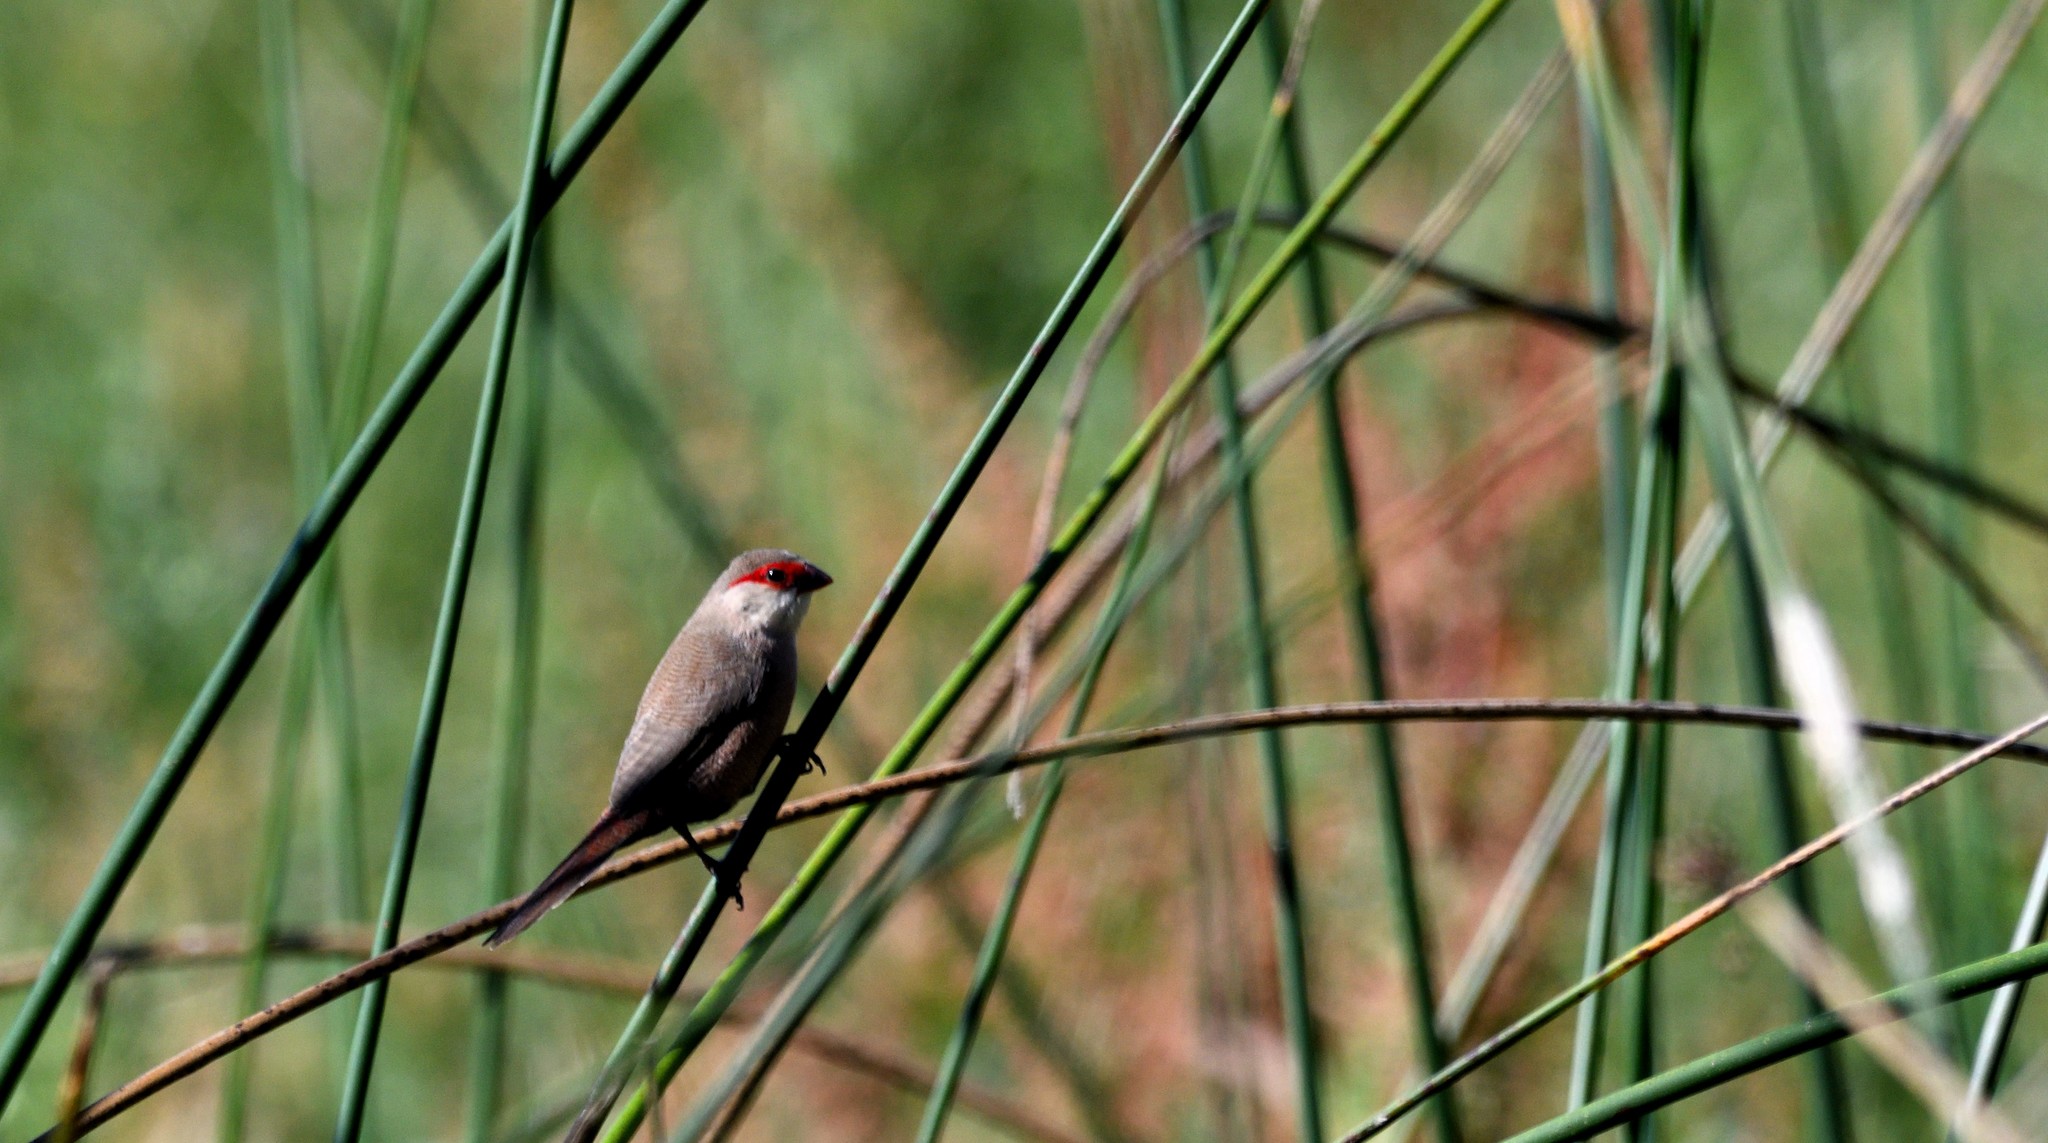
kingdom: Animalia
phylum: Chordata
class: Aves
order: Passeriformes
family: Estrildidae
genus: Estrilda
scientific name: Estrilda astrild
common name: Common waxbill
